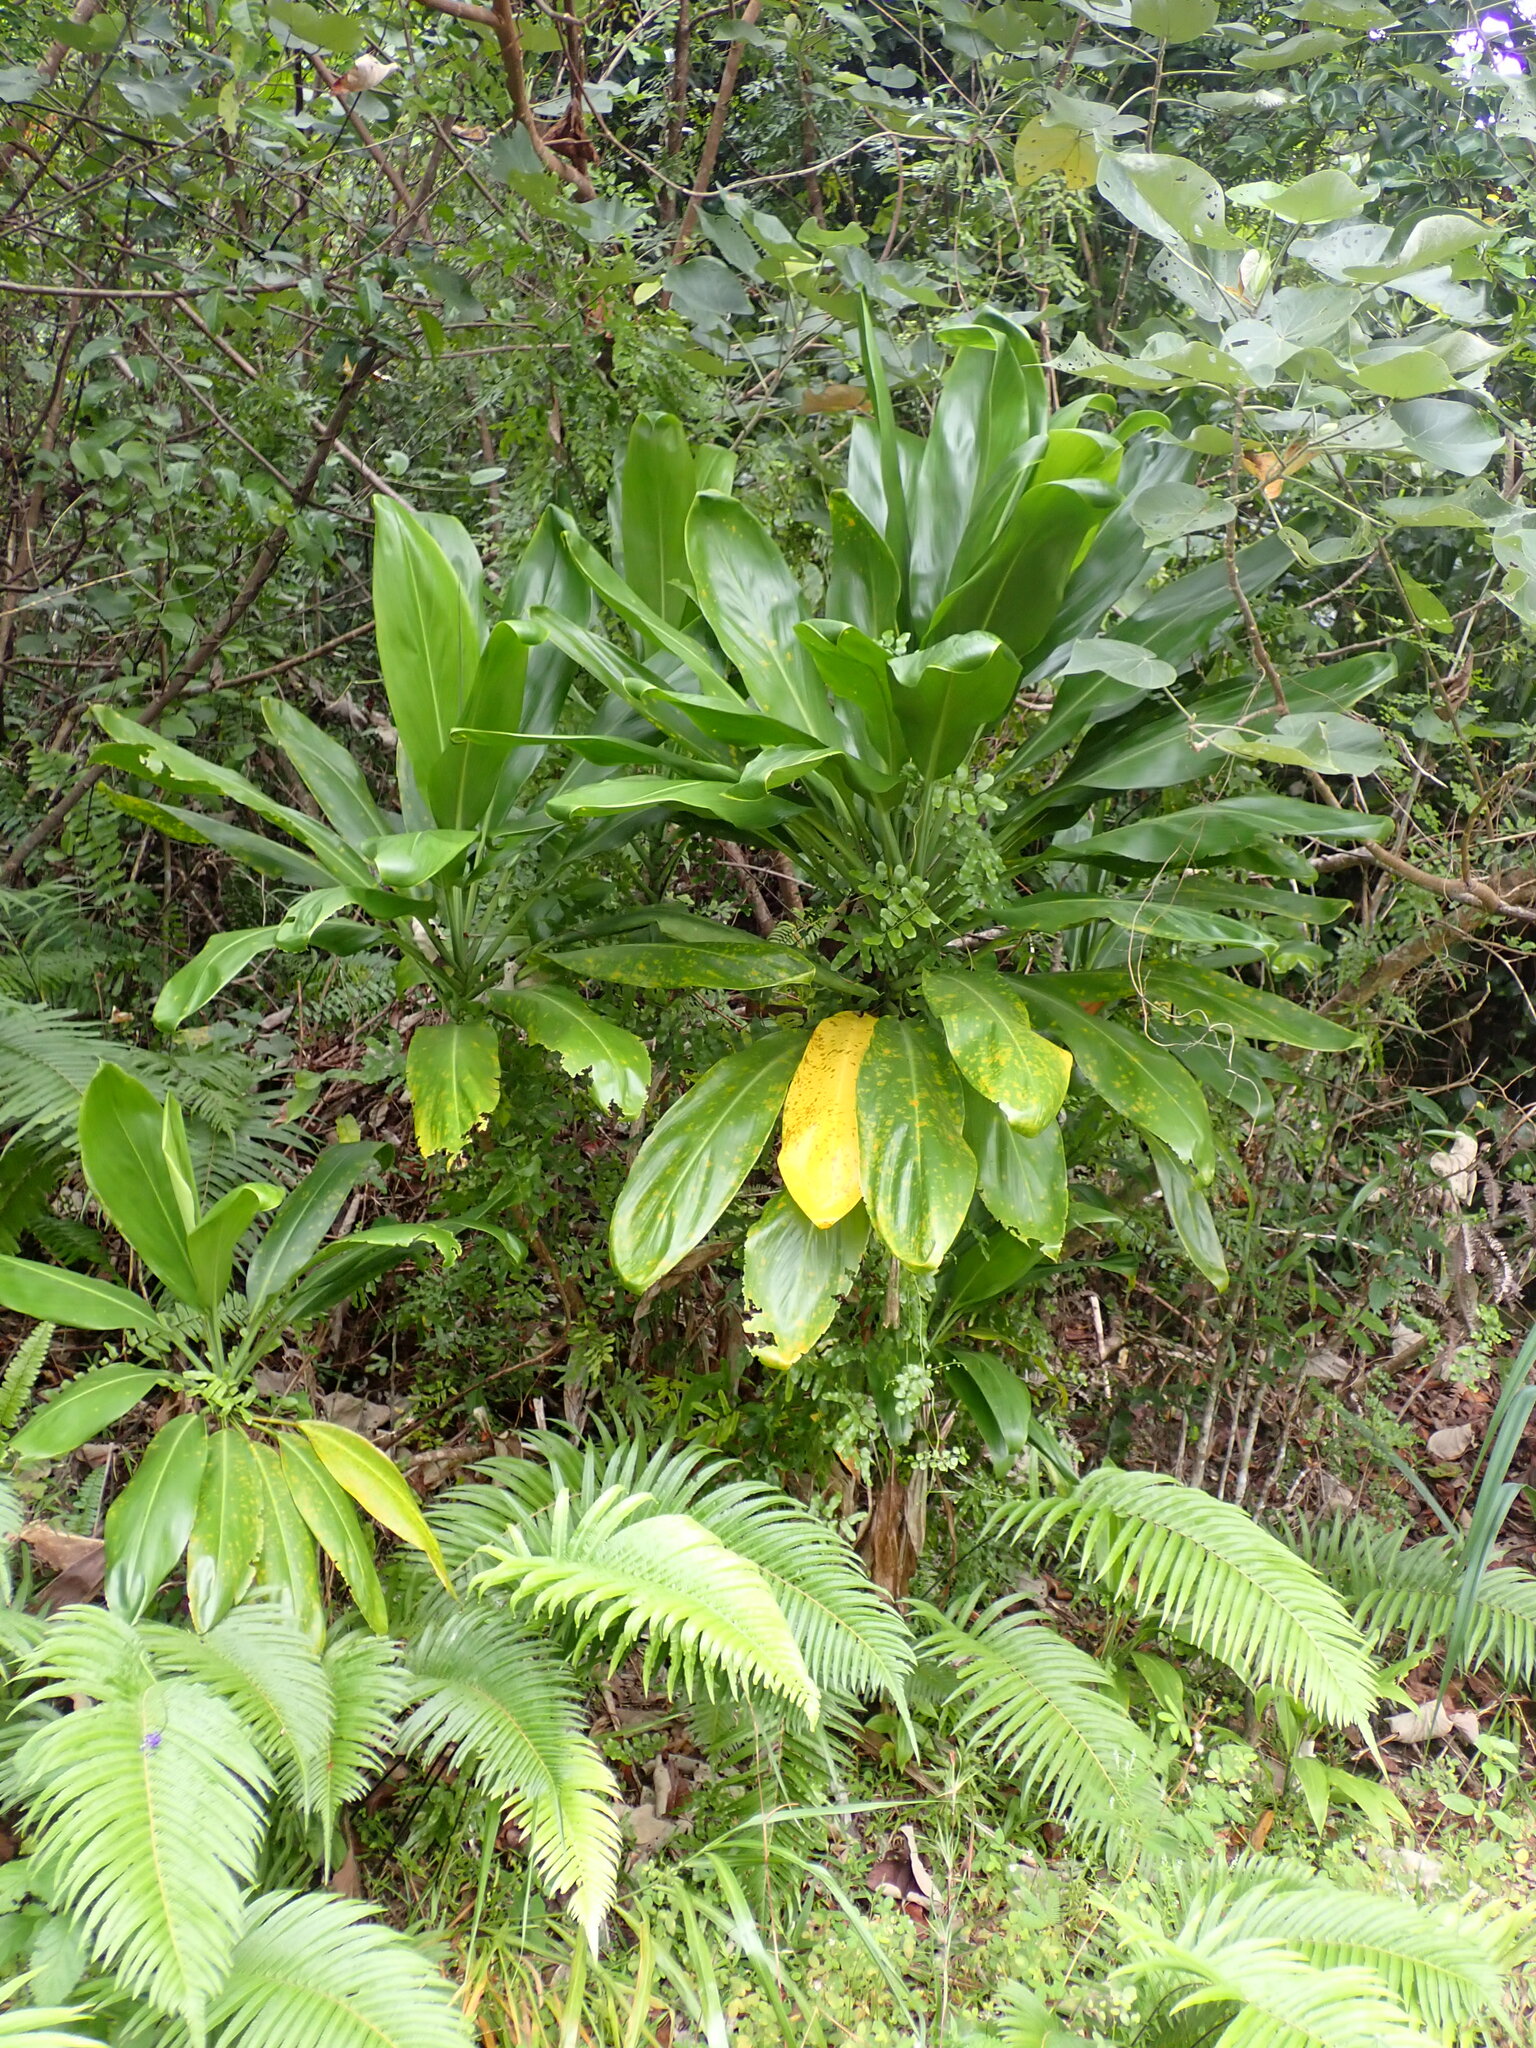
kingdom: Plantae
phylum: Tracheophyta
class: Liliopsida
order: Asparagales
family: Asparagaceae
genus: Cordyline
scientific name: Cordyline fruticosa
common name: Good-luck-plant
